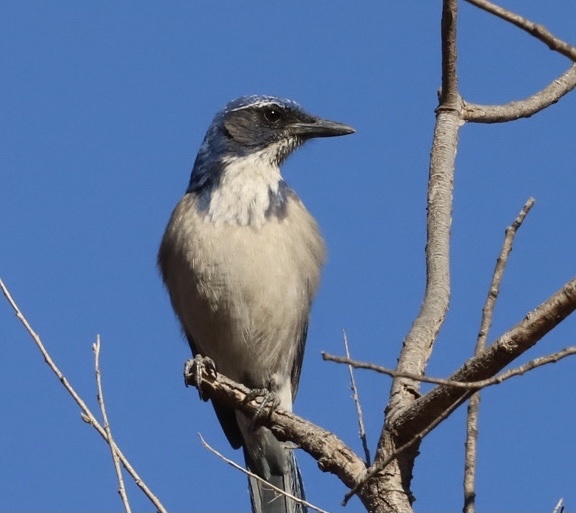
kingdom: Animalia
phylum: Chordata
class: Aves
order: Passeriformes
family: Corvidae
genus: Aphelocoma
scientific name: Aphelocoma californica
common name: California scrub-jay
